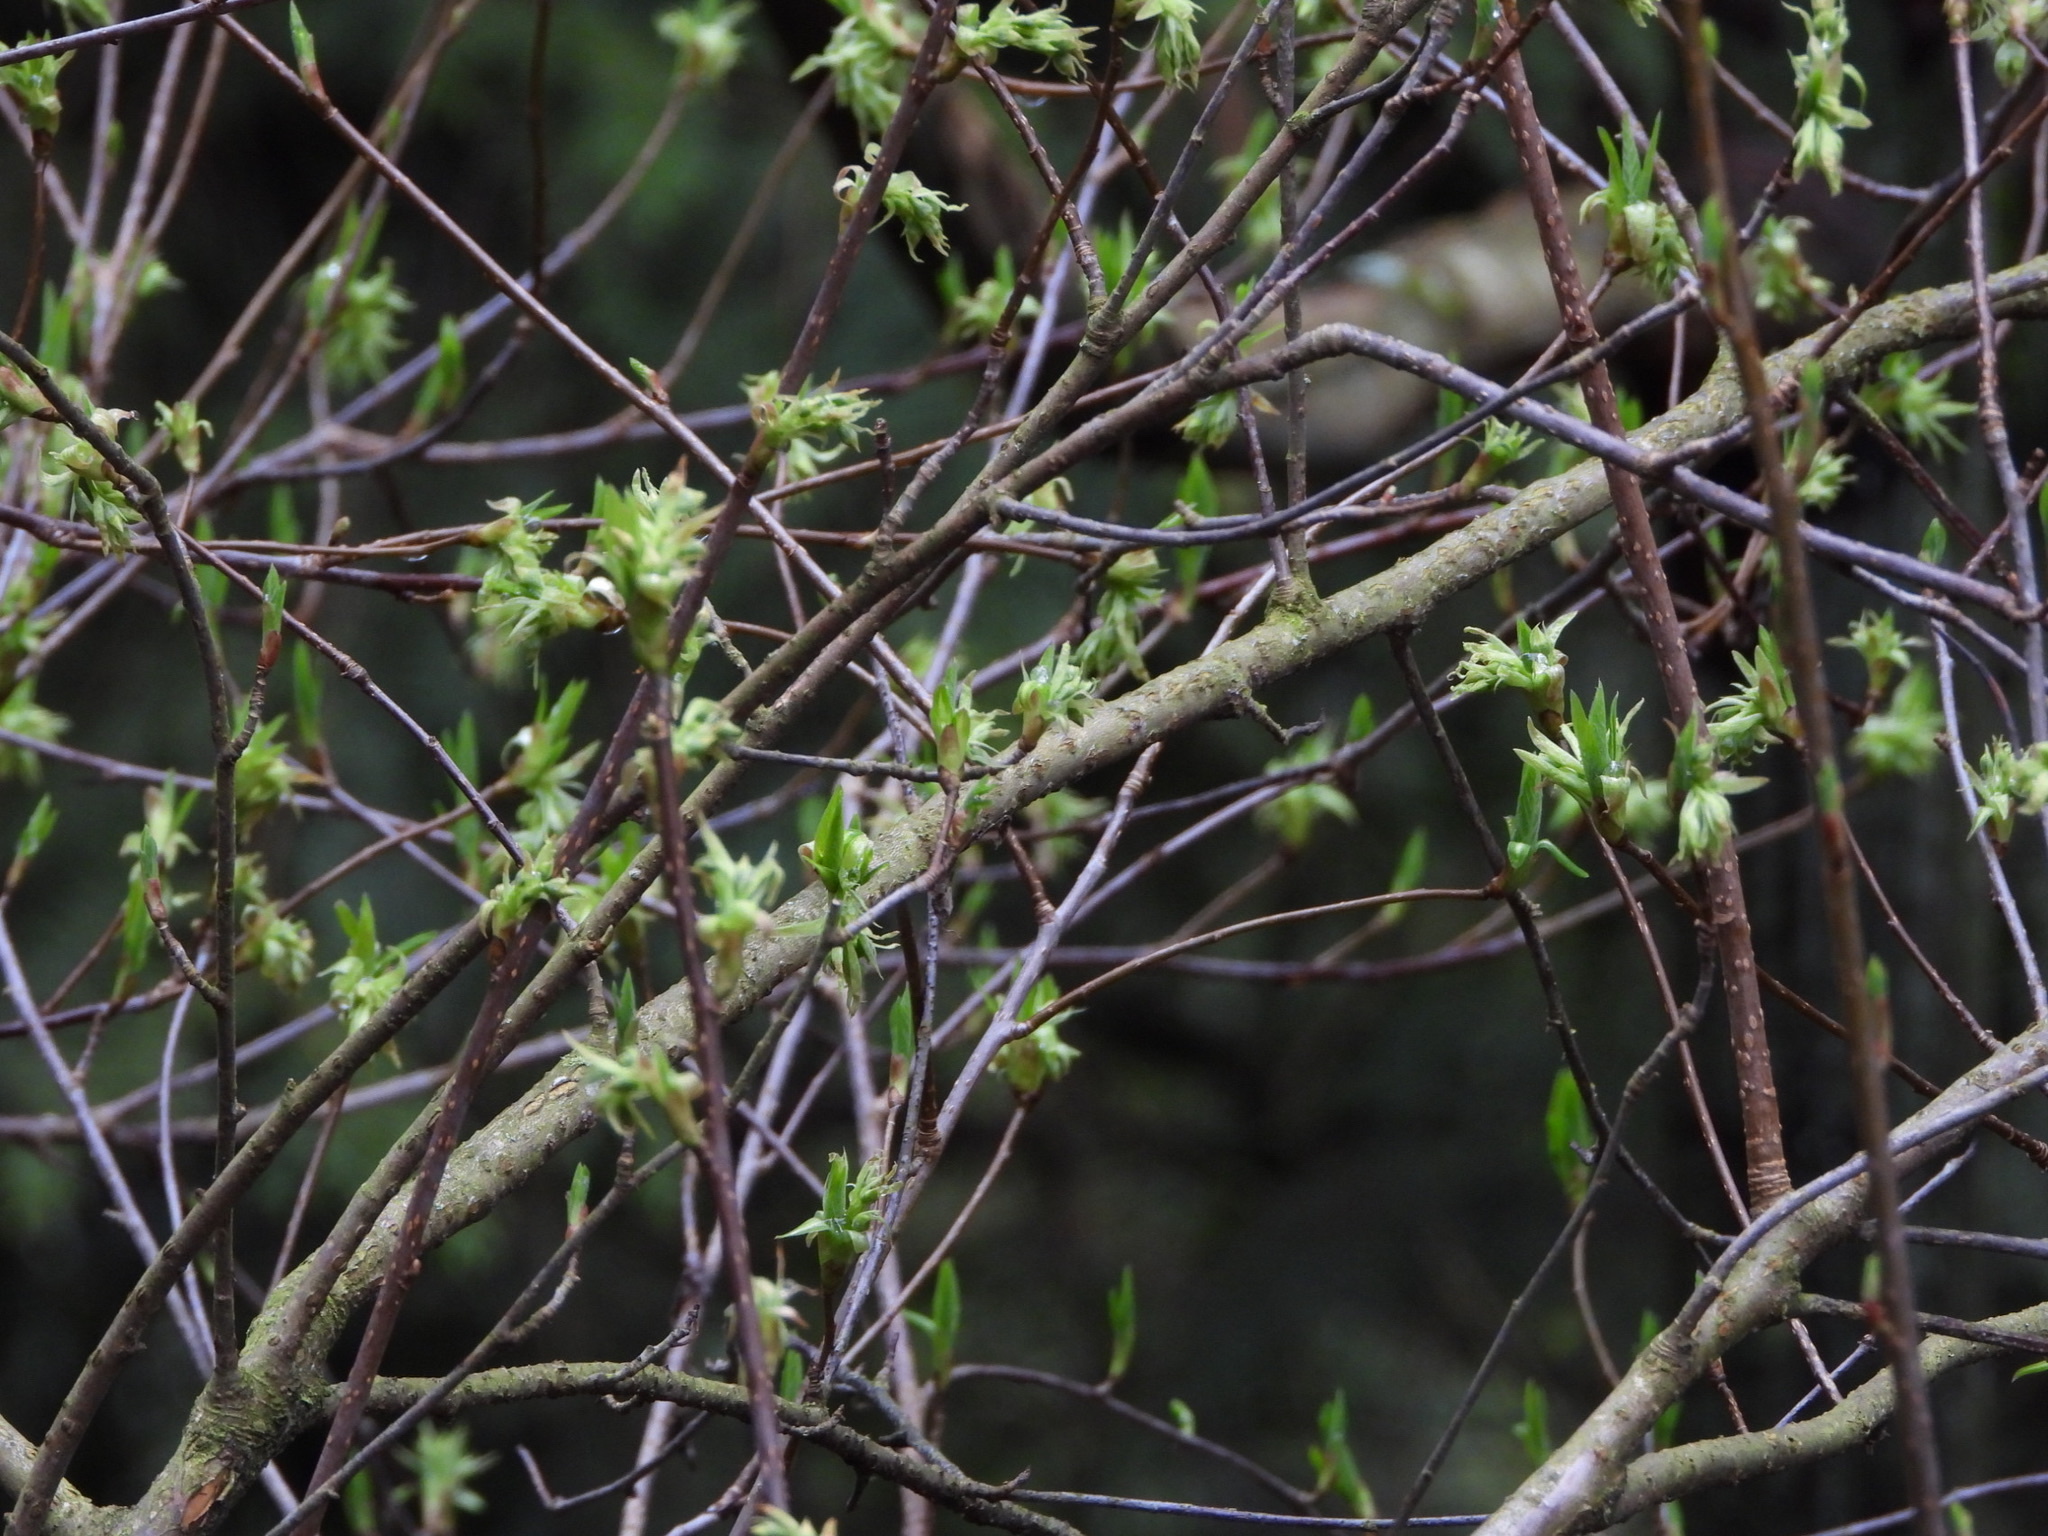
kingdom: Plantae
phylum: Tracheophyta
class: Magnoliopsida
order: Rosales
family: Rosaceae
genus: Oemleria
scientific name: Oemleria cerasiformis
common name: Osoberry
